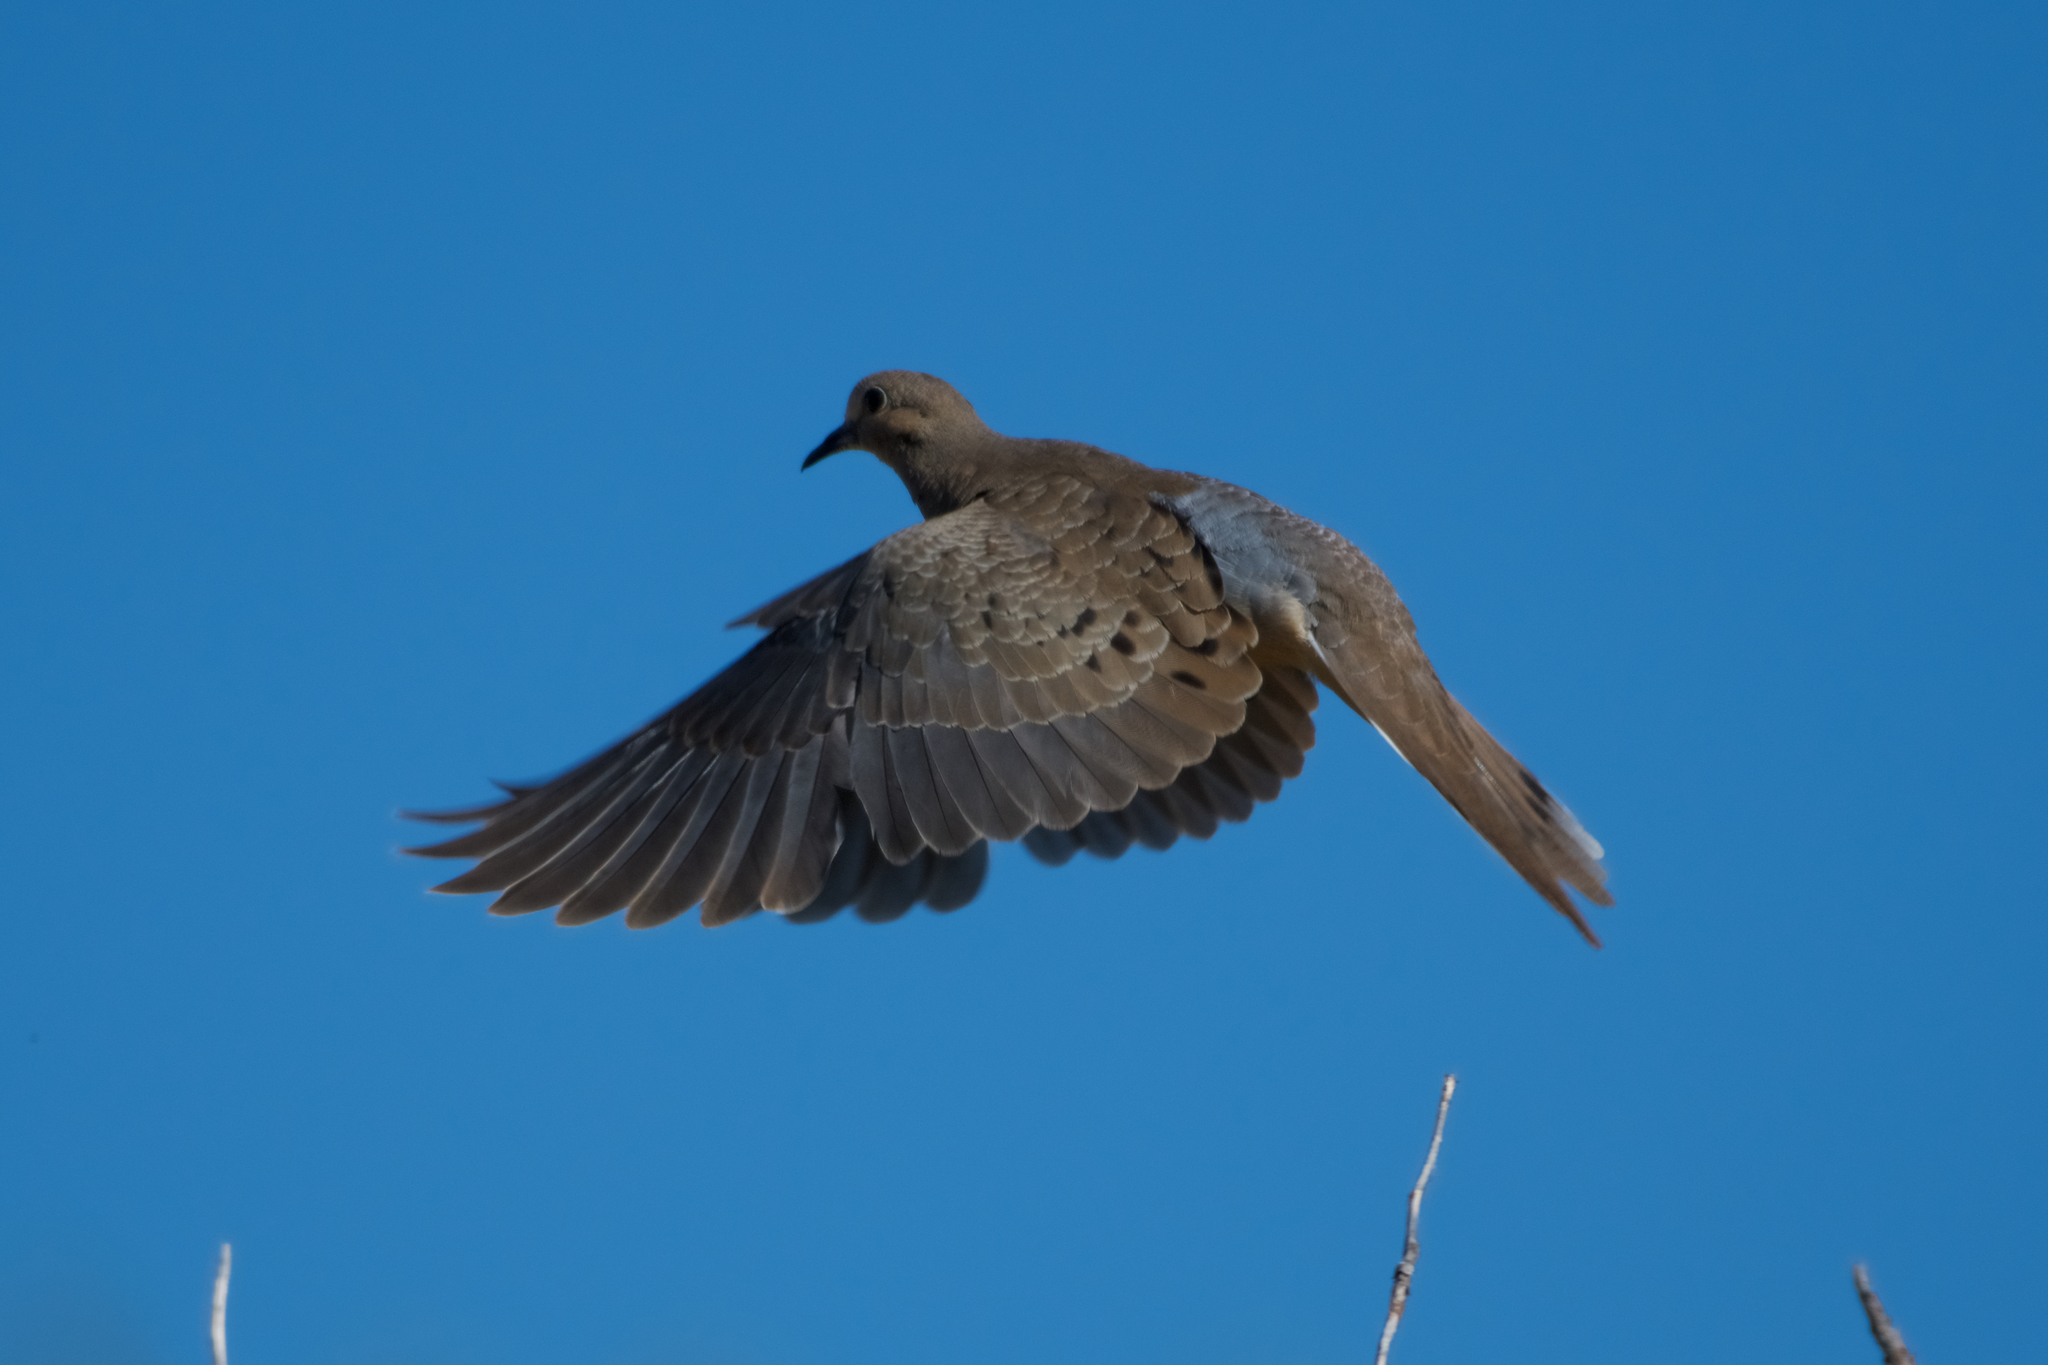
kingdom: Animalia
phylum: Chordata
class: Aves
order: Columbiformes
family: Columbidae
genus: Zenaida
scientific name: Zenaida macroura
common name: Mourning dove
